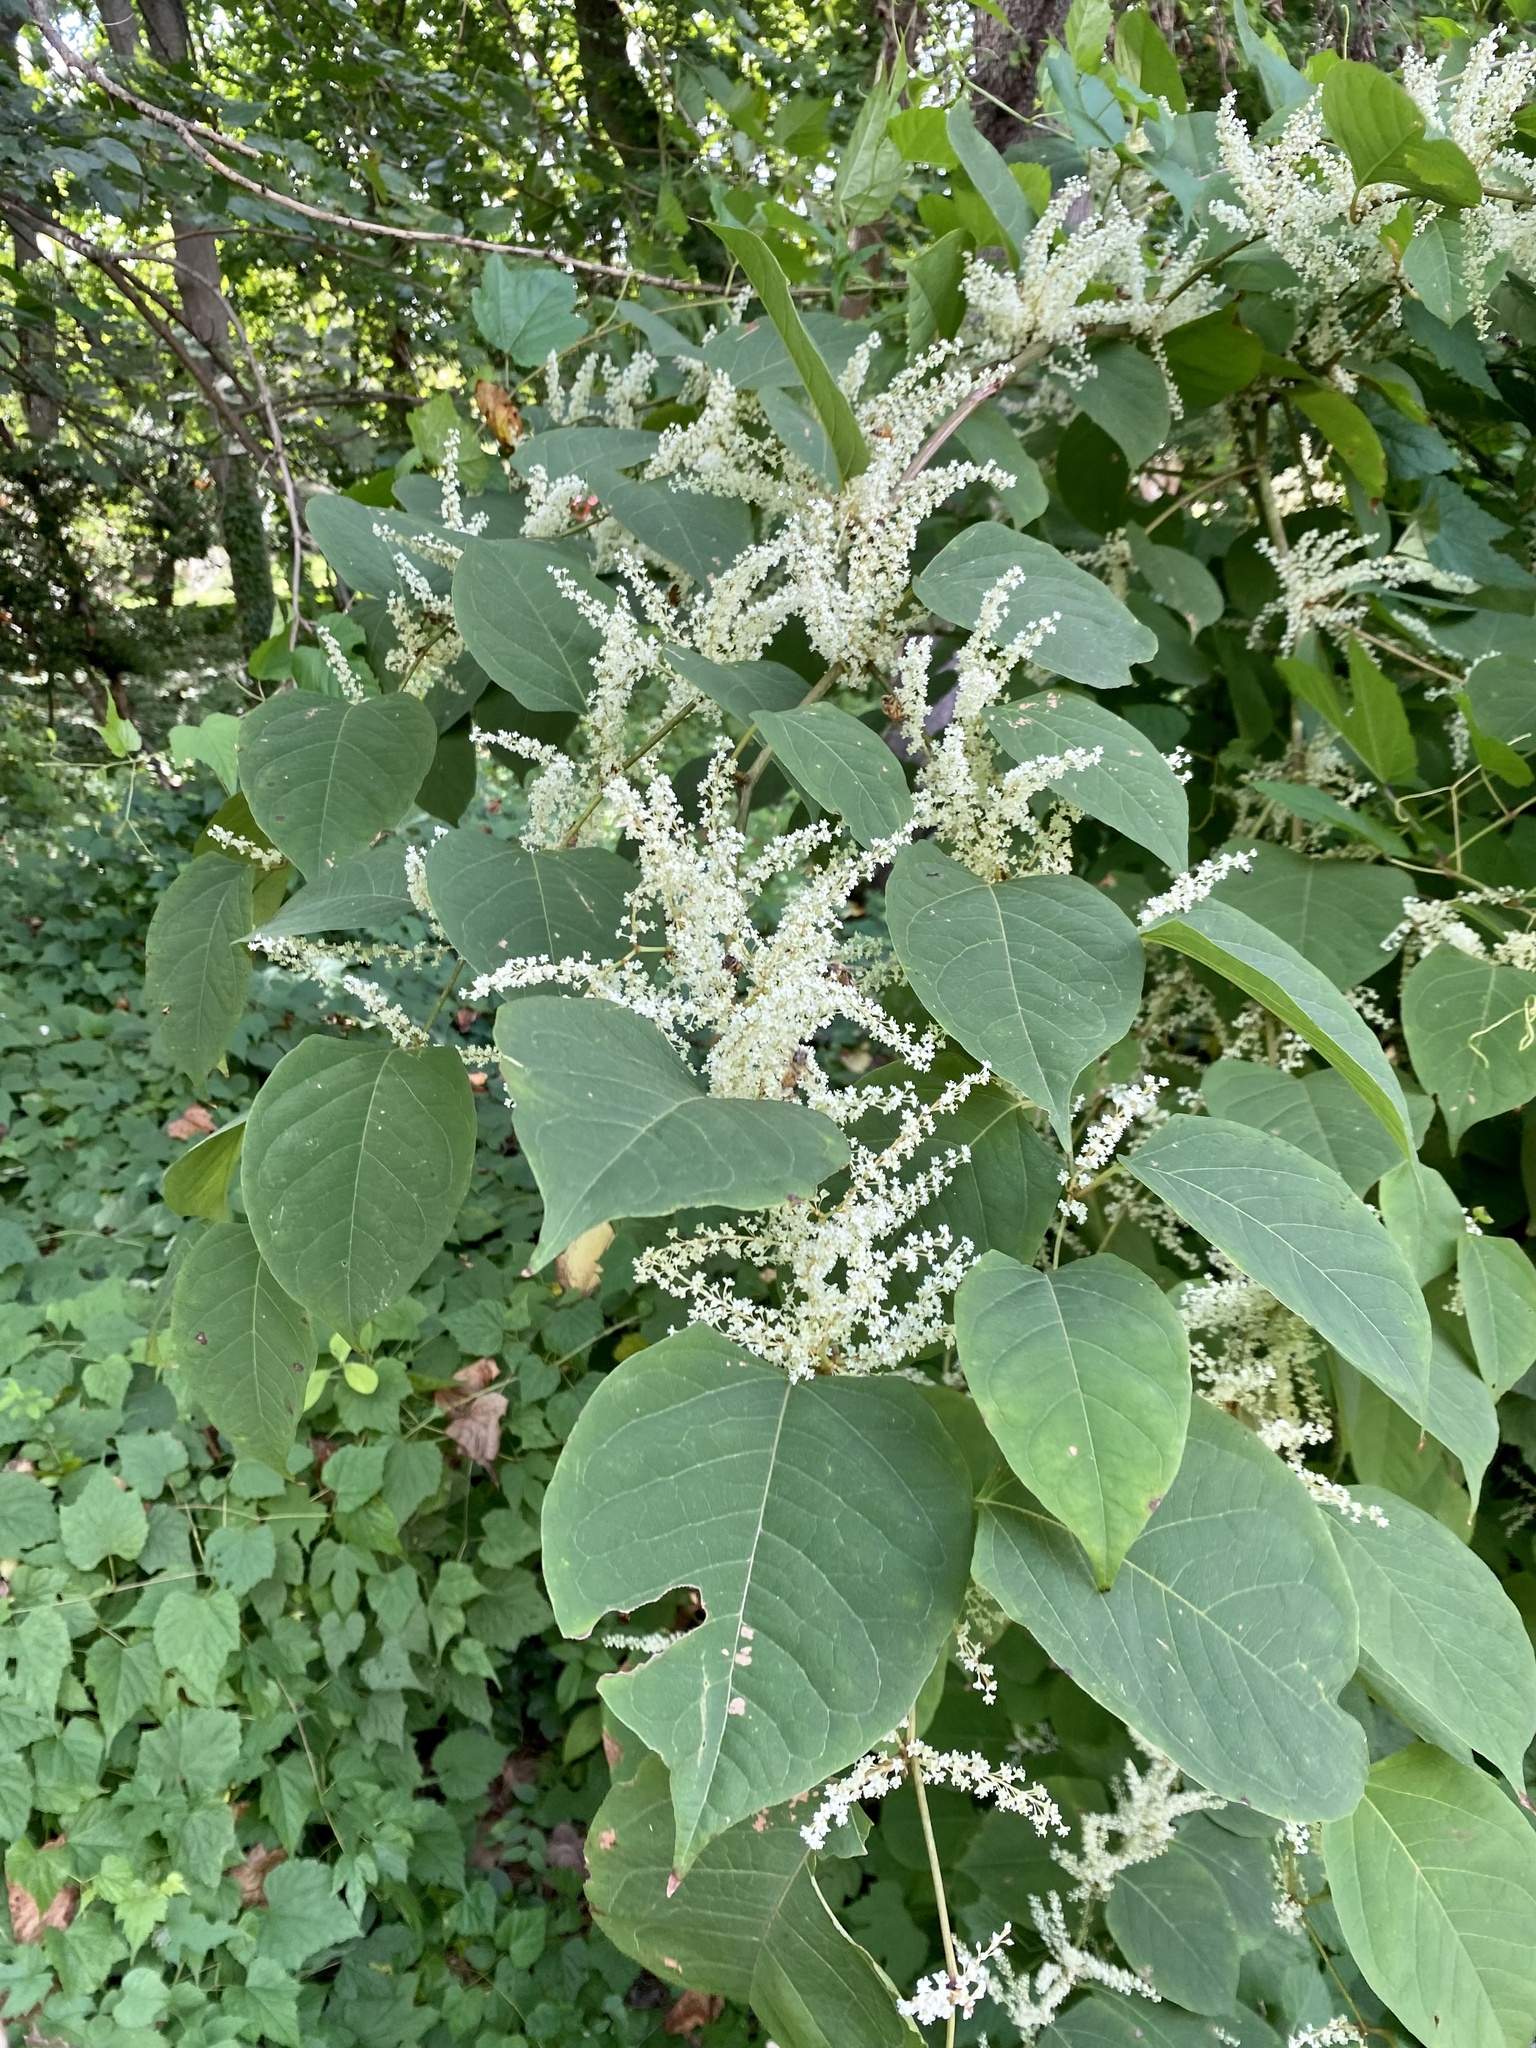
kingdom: Plantae
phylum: Tracheophyta
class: Magnoliopsida
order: Caryophyllales
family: Polygonaceae
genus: Reynoutria
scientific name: Reynoutria japonica
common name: Japanese knotweed
